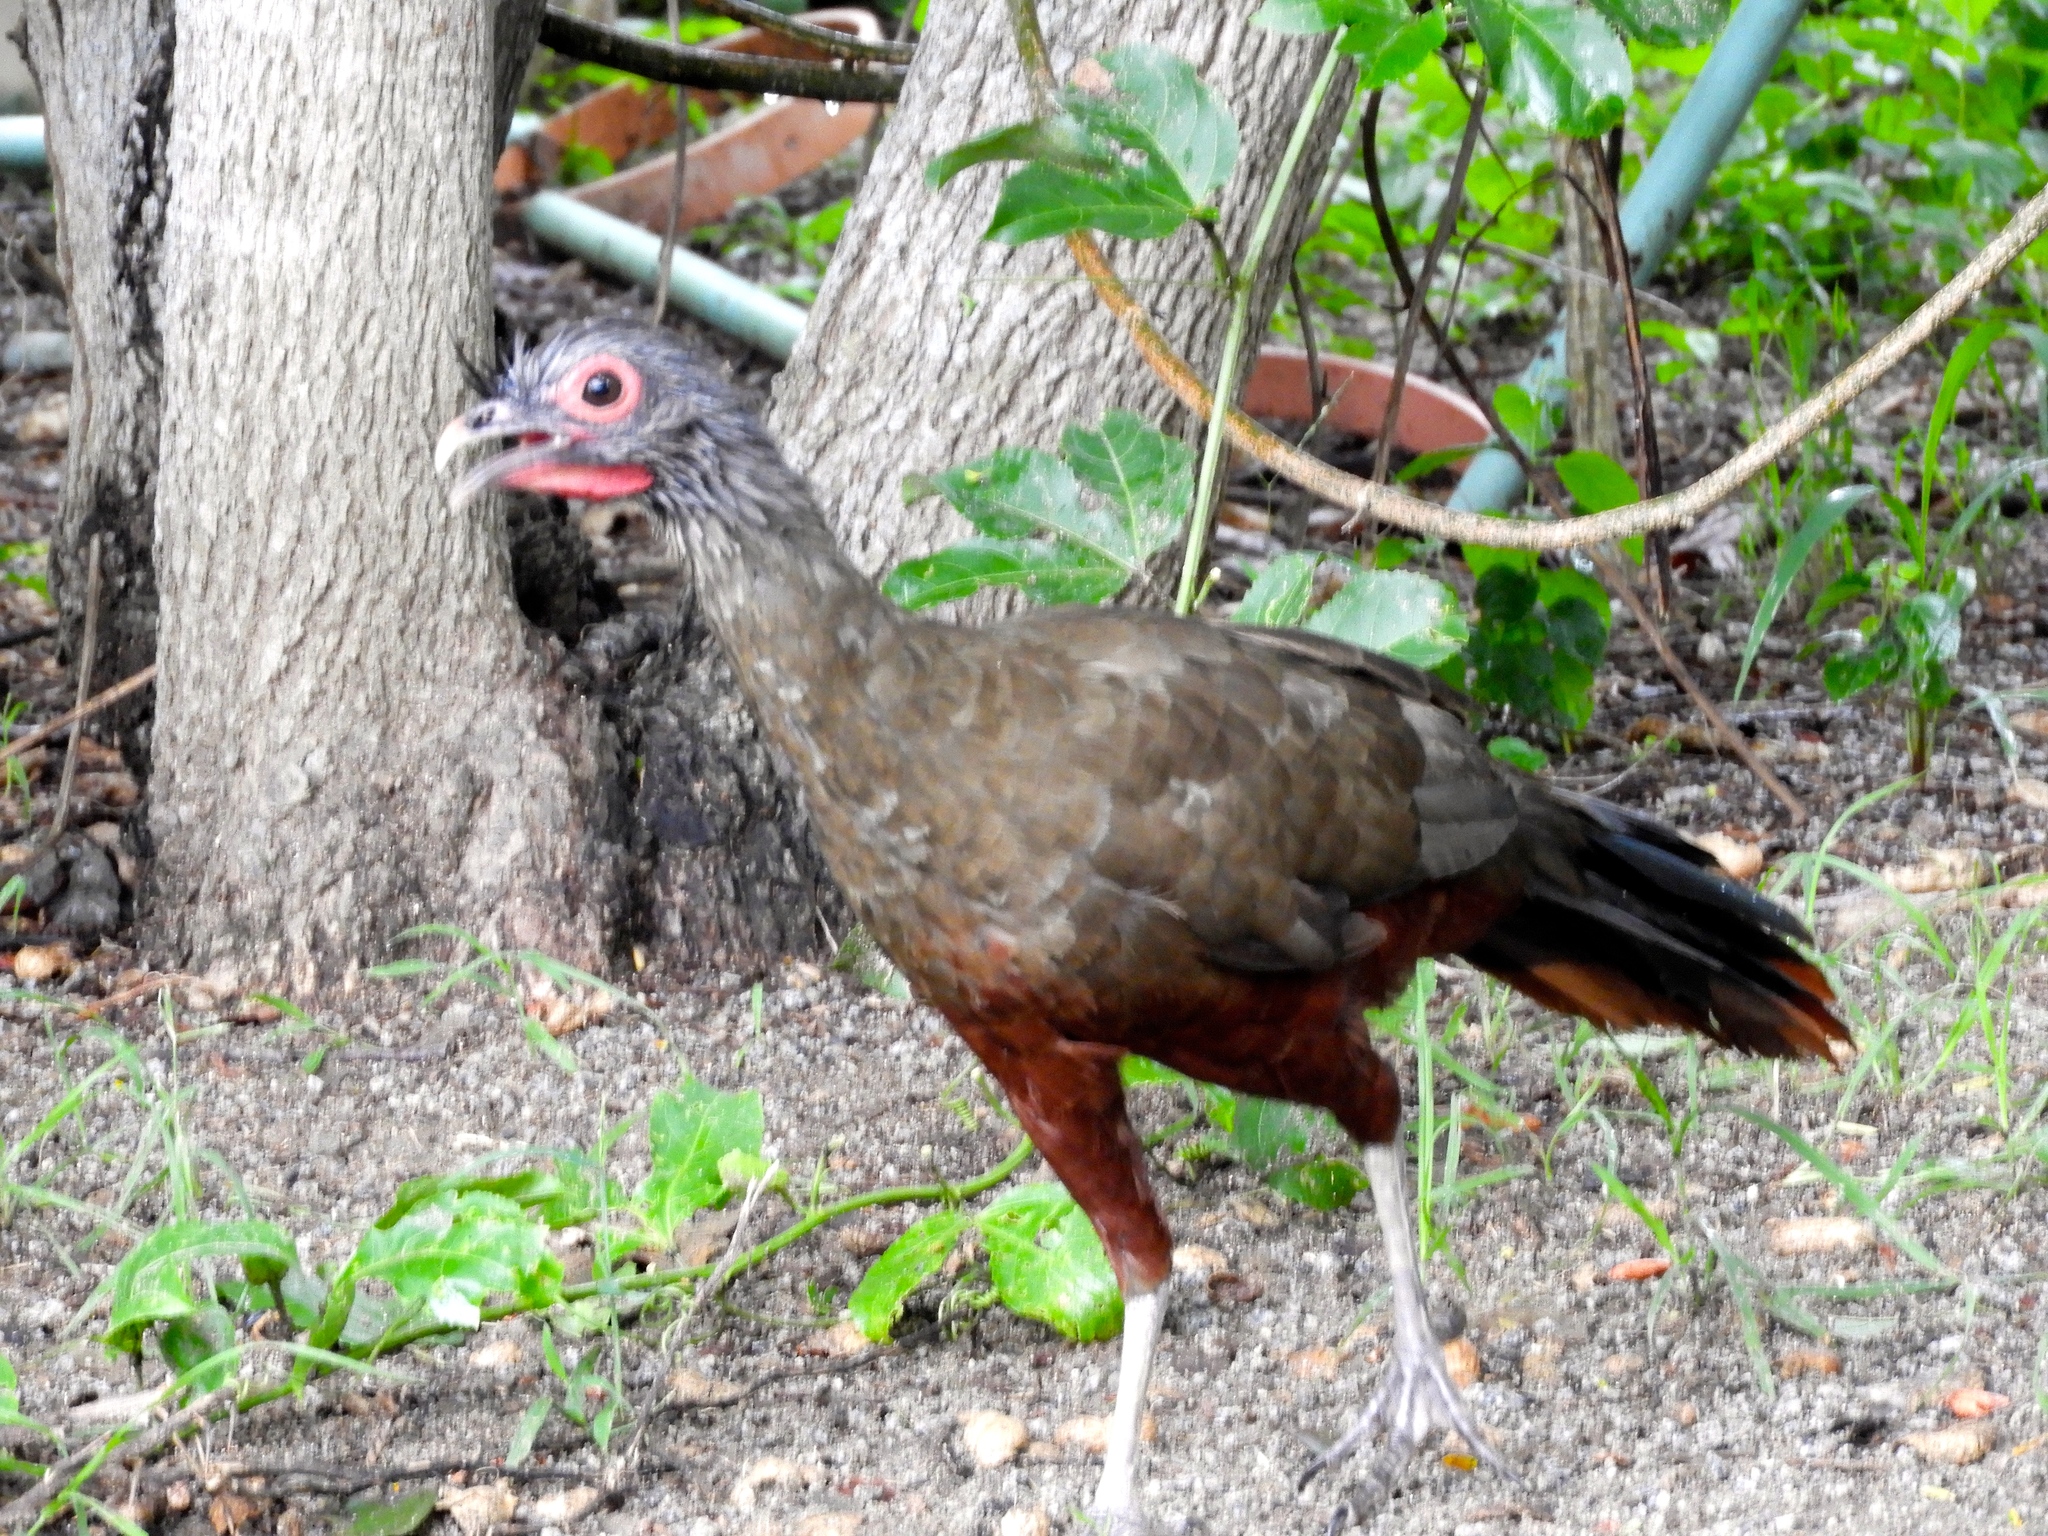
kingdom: Animalia
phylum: Chordata
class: Aves
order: Galliformes
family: Cracidae
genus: Ortalis
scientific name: Ortalis wagleri
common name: Rufous-bellied chachalaca
